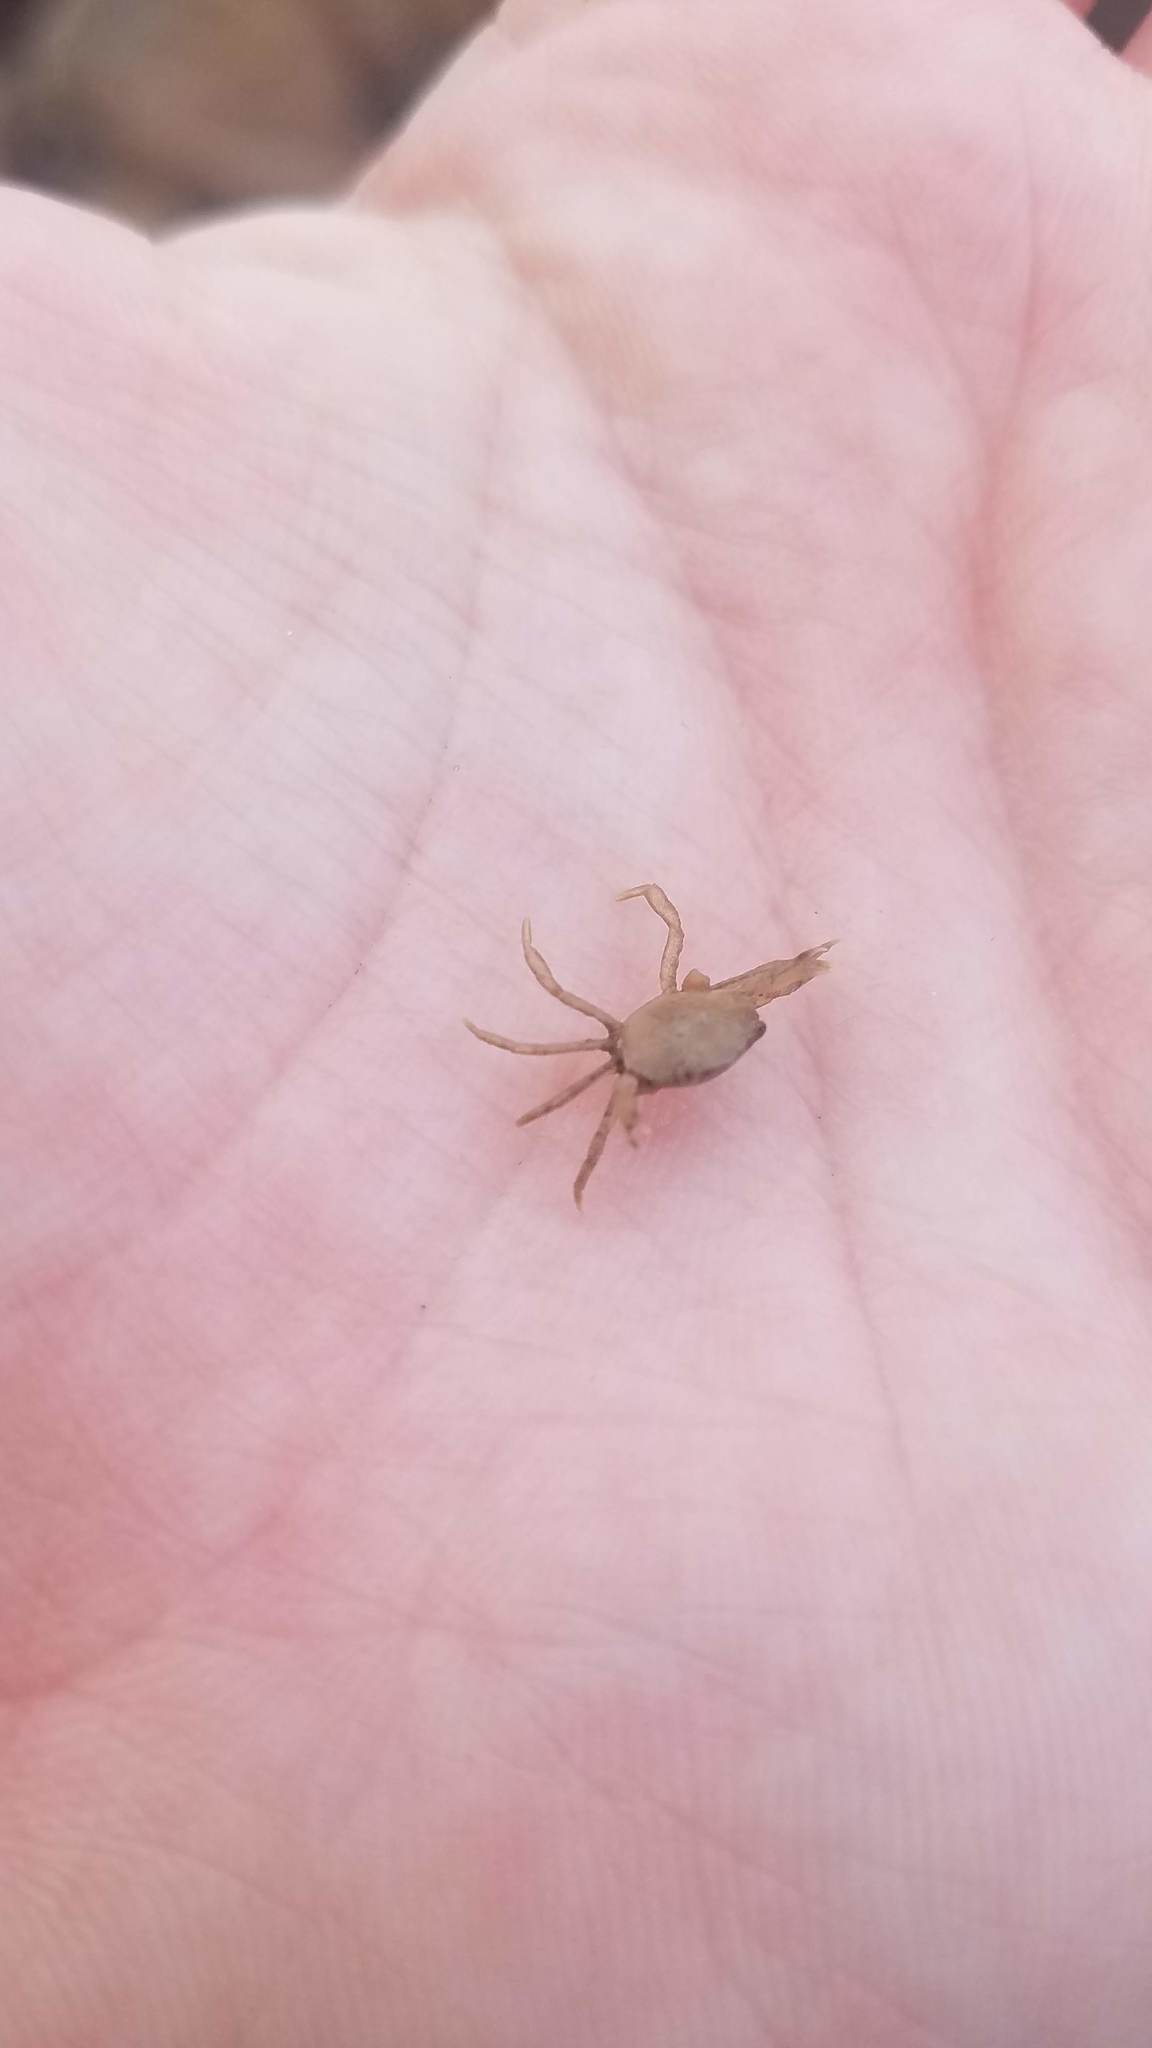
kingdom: Animalia
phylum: Arthropoda
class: Malacostraca
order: Decapoda
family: Carcinidae
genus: Carcinus
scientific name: Carcinus maenas
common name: European green crab
